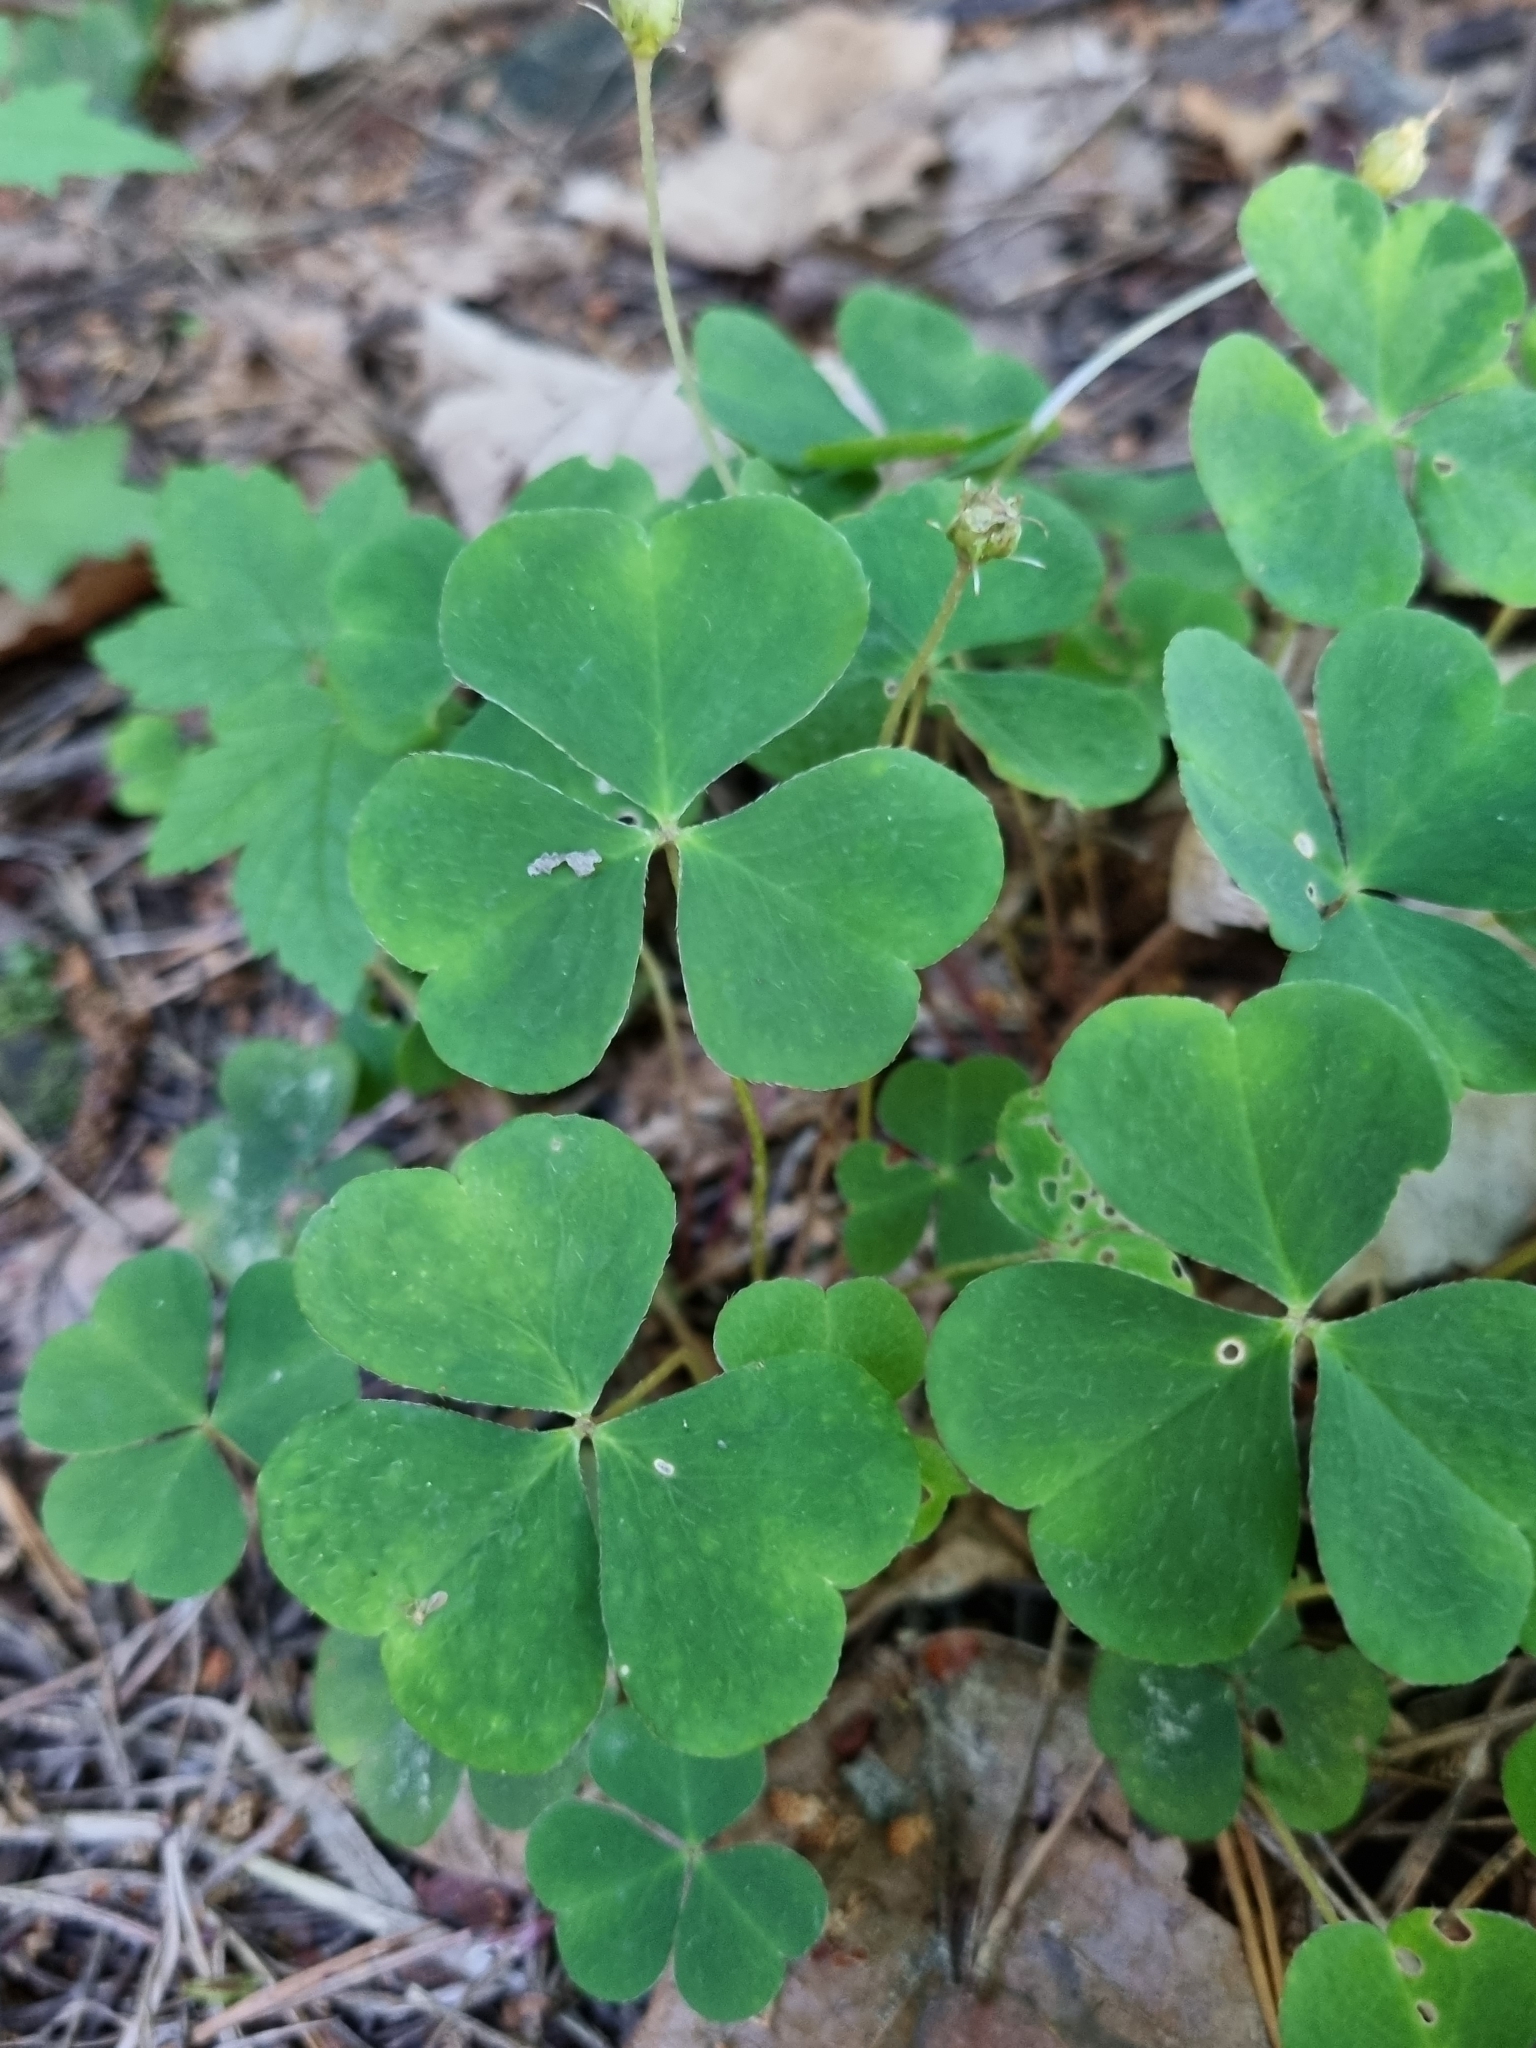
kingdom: Plantae
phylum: Tracheophyta
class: Magnoliopsida
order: Oxalidales
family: Oxalidaceae
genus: Oxalis
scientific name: Oxalis acetosella
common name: Wood-sorrel
